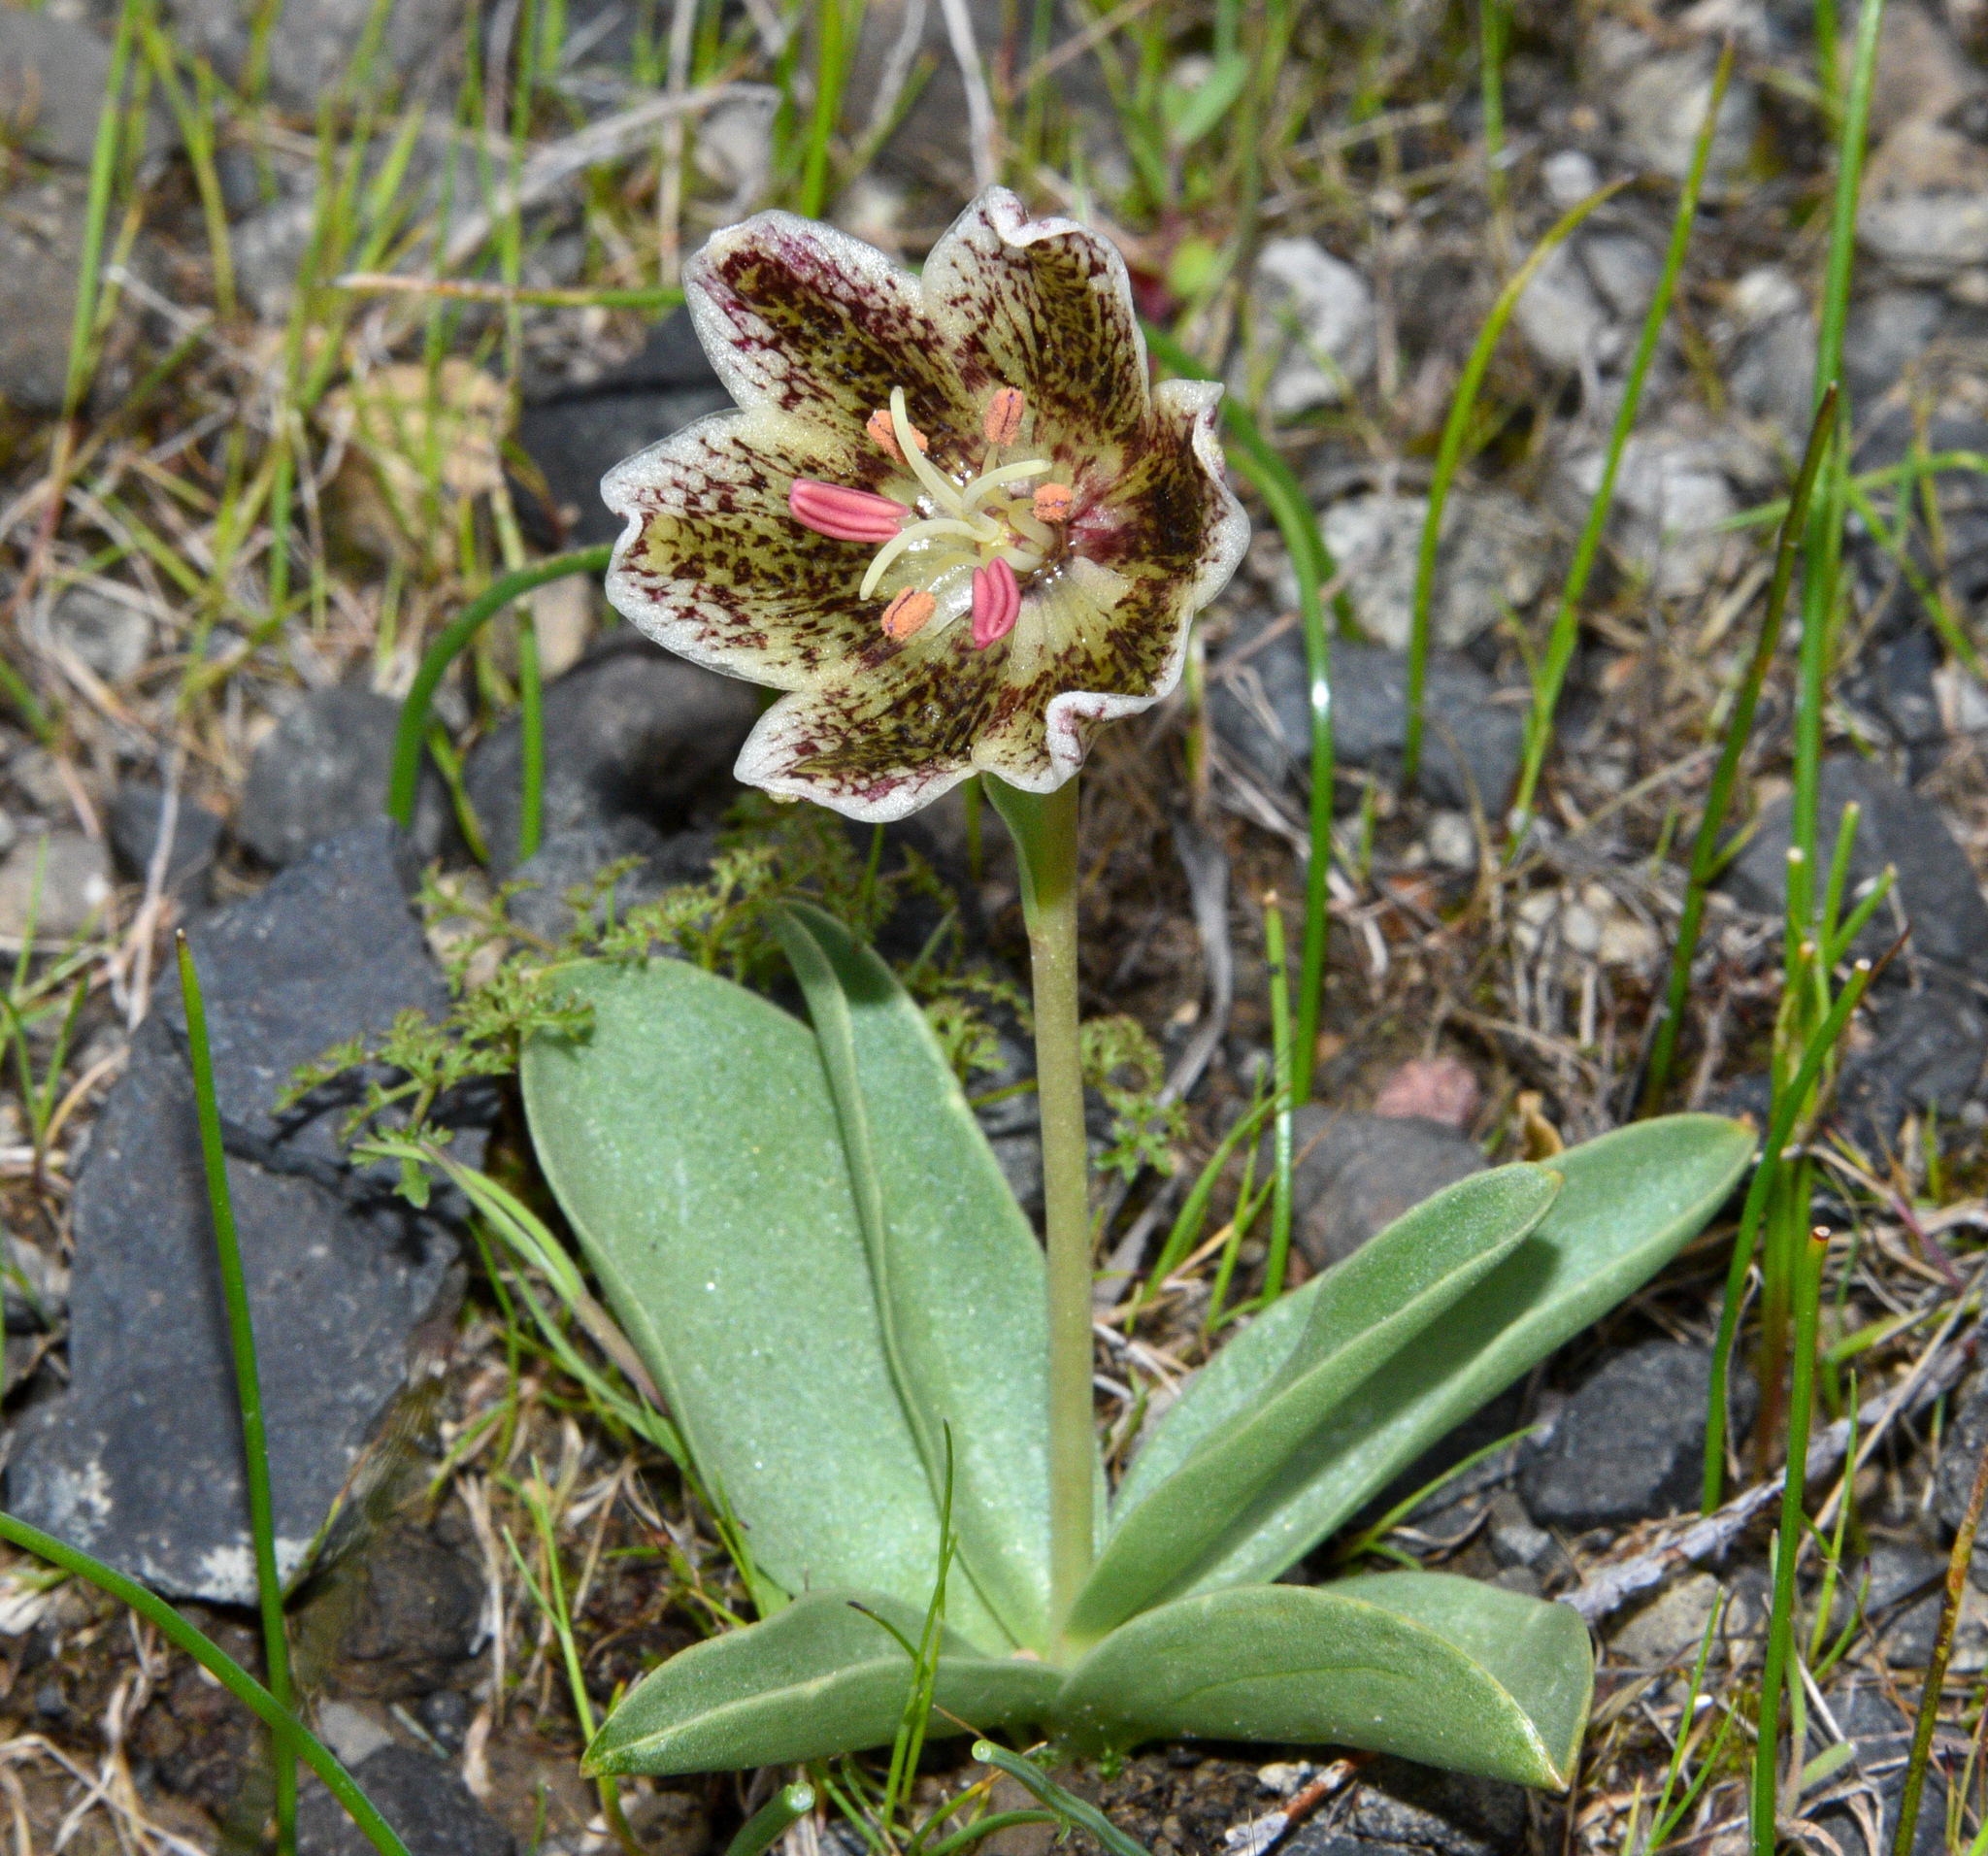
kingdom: Plantae
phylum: Tracheophyta
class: Liliopsida
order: Liliales
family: Liliaceae
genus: Fritillaria
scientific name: Fritillaria purdyi
